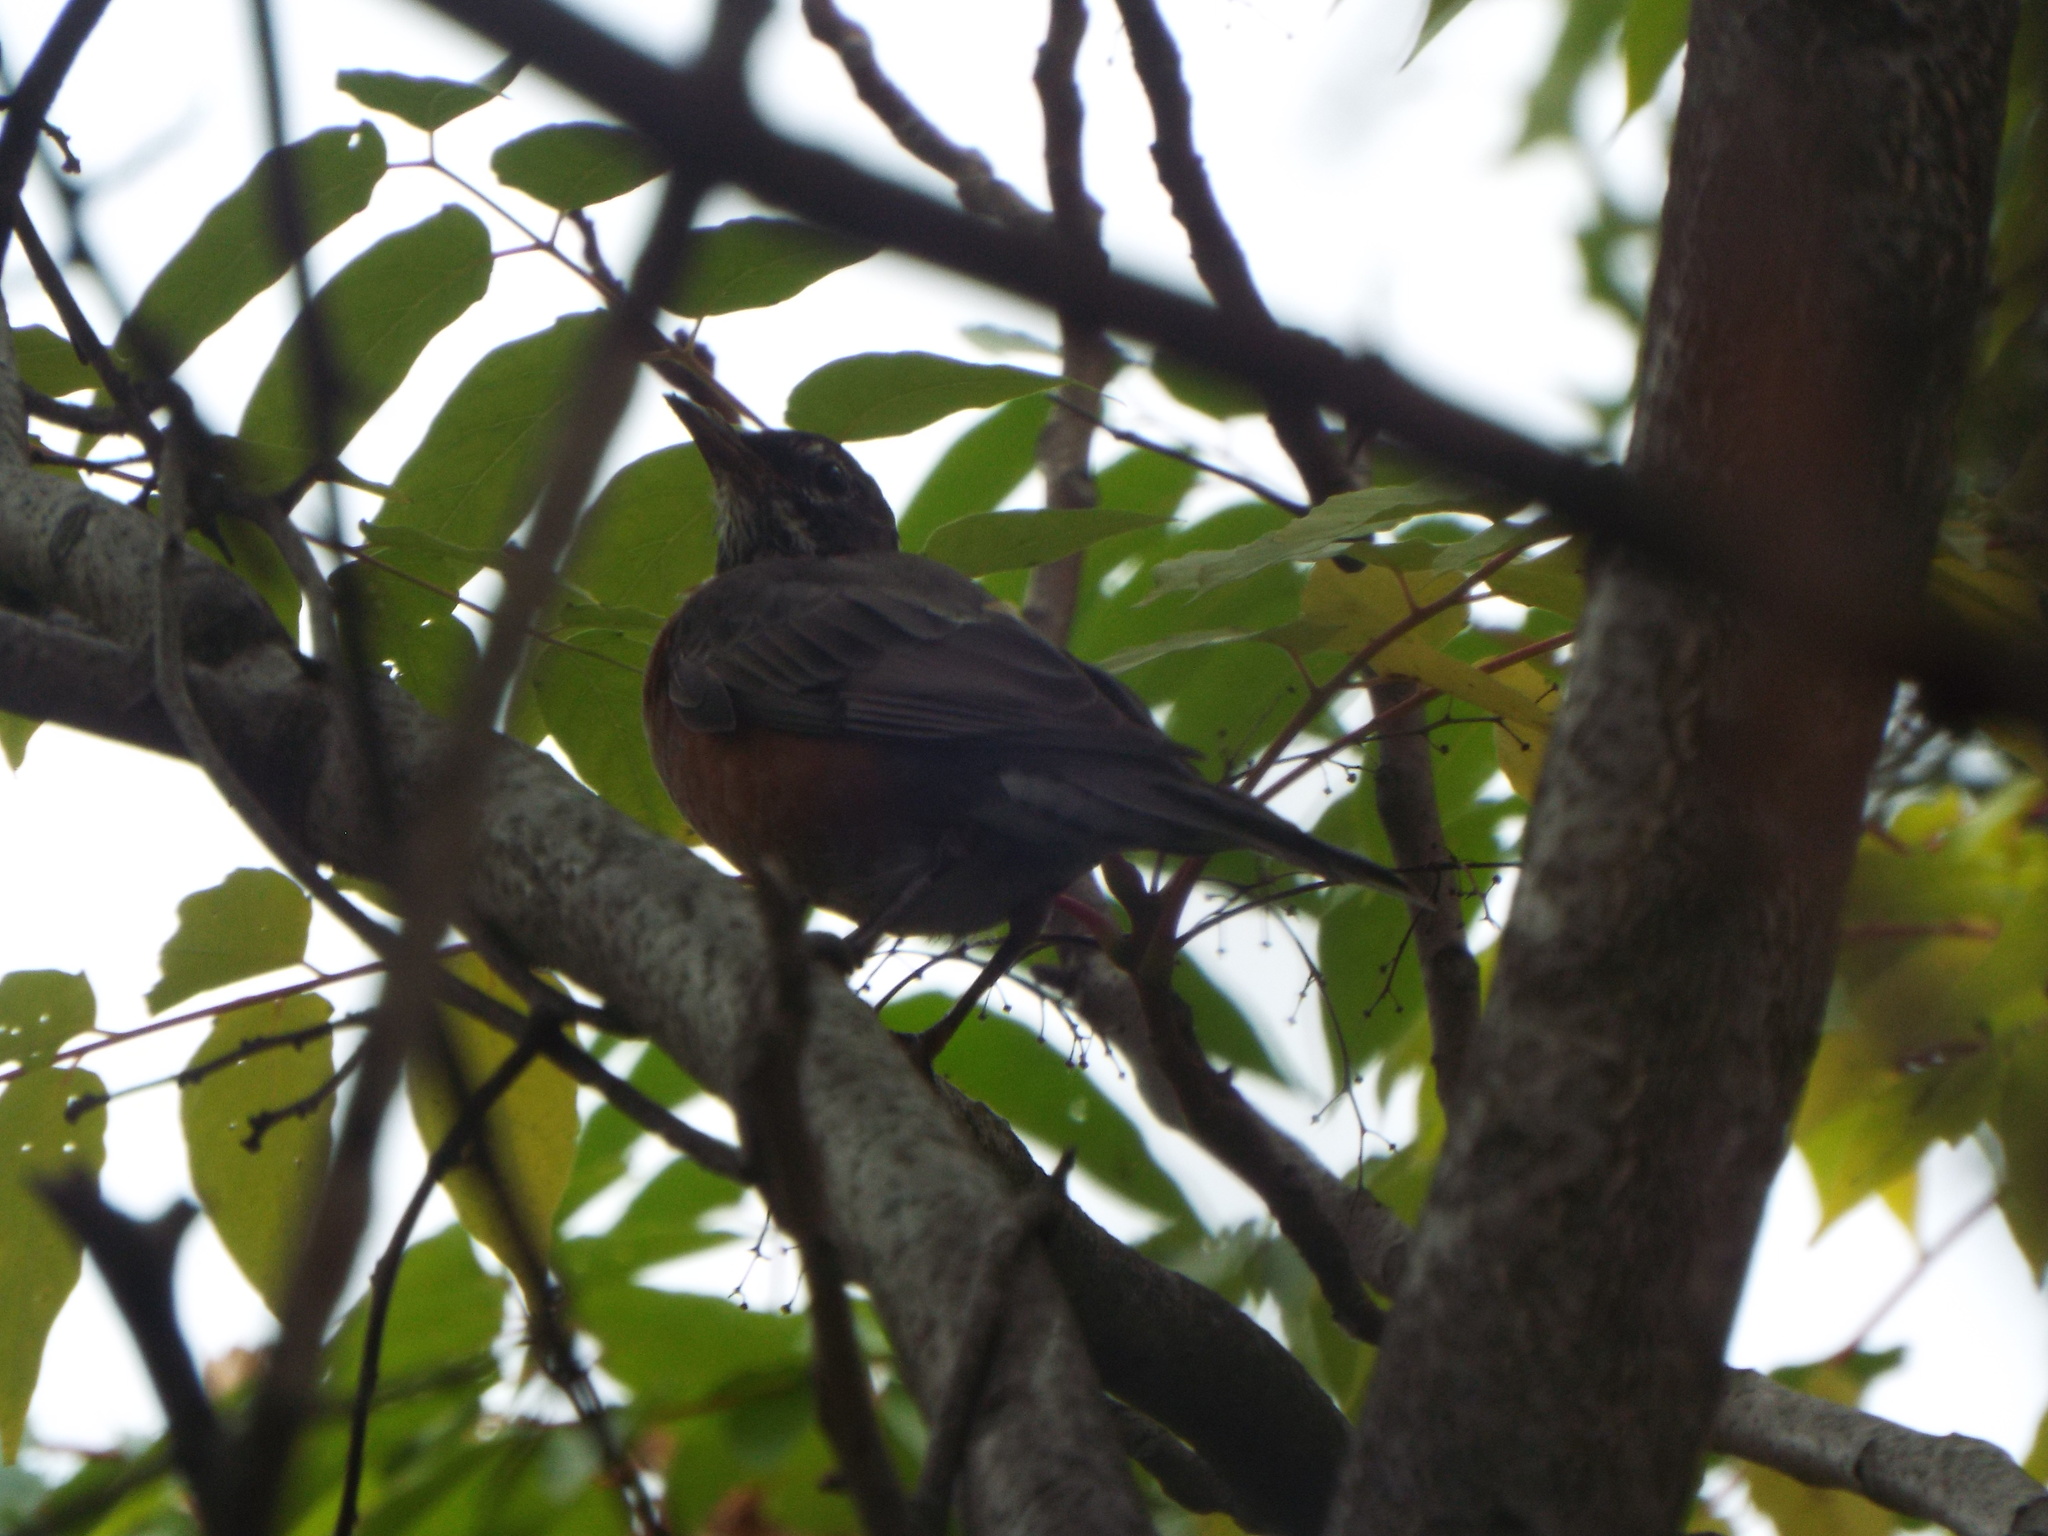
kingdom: Animalia
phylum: Chordata
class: Aves
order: Passeriformes
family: Turdidae
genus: Turdus
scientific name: Turdus migratorius
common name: American robin
